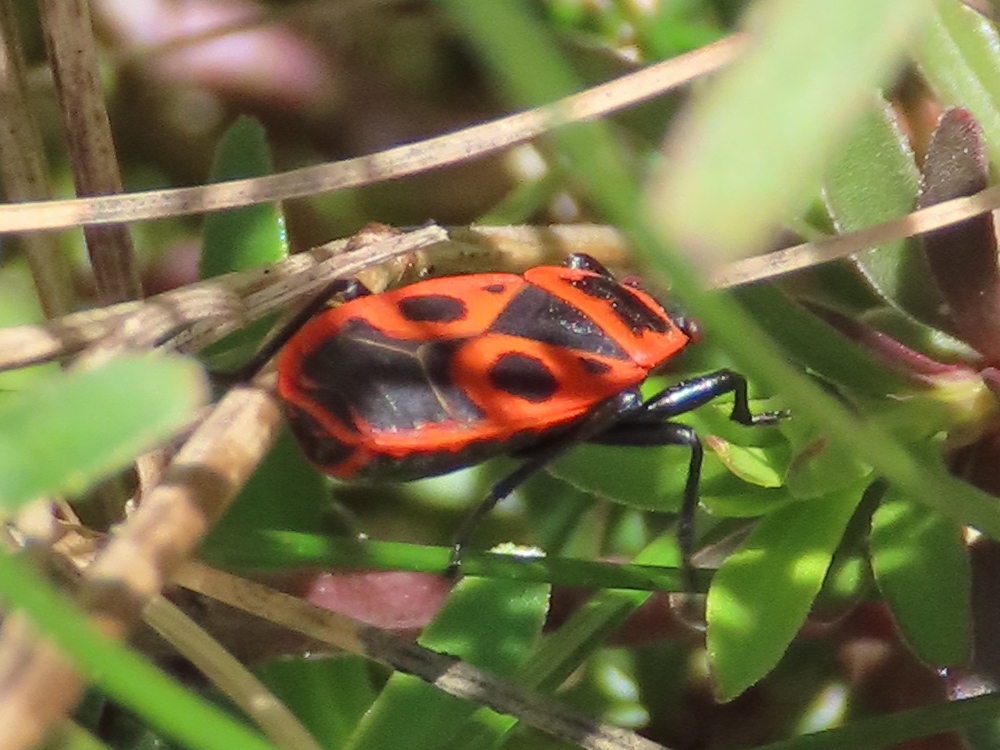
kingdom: Animalia
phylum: Arthropoda
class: Insecta
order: Hemiptera
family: Pyrrhocoridae
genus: Pyrrhocoris
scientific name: Pyrrhocoris apterus
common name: Firebug
